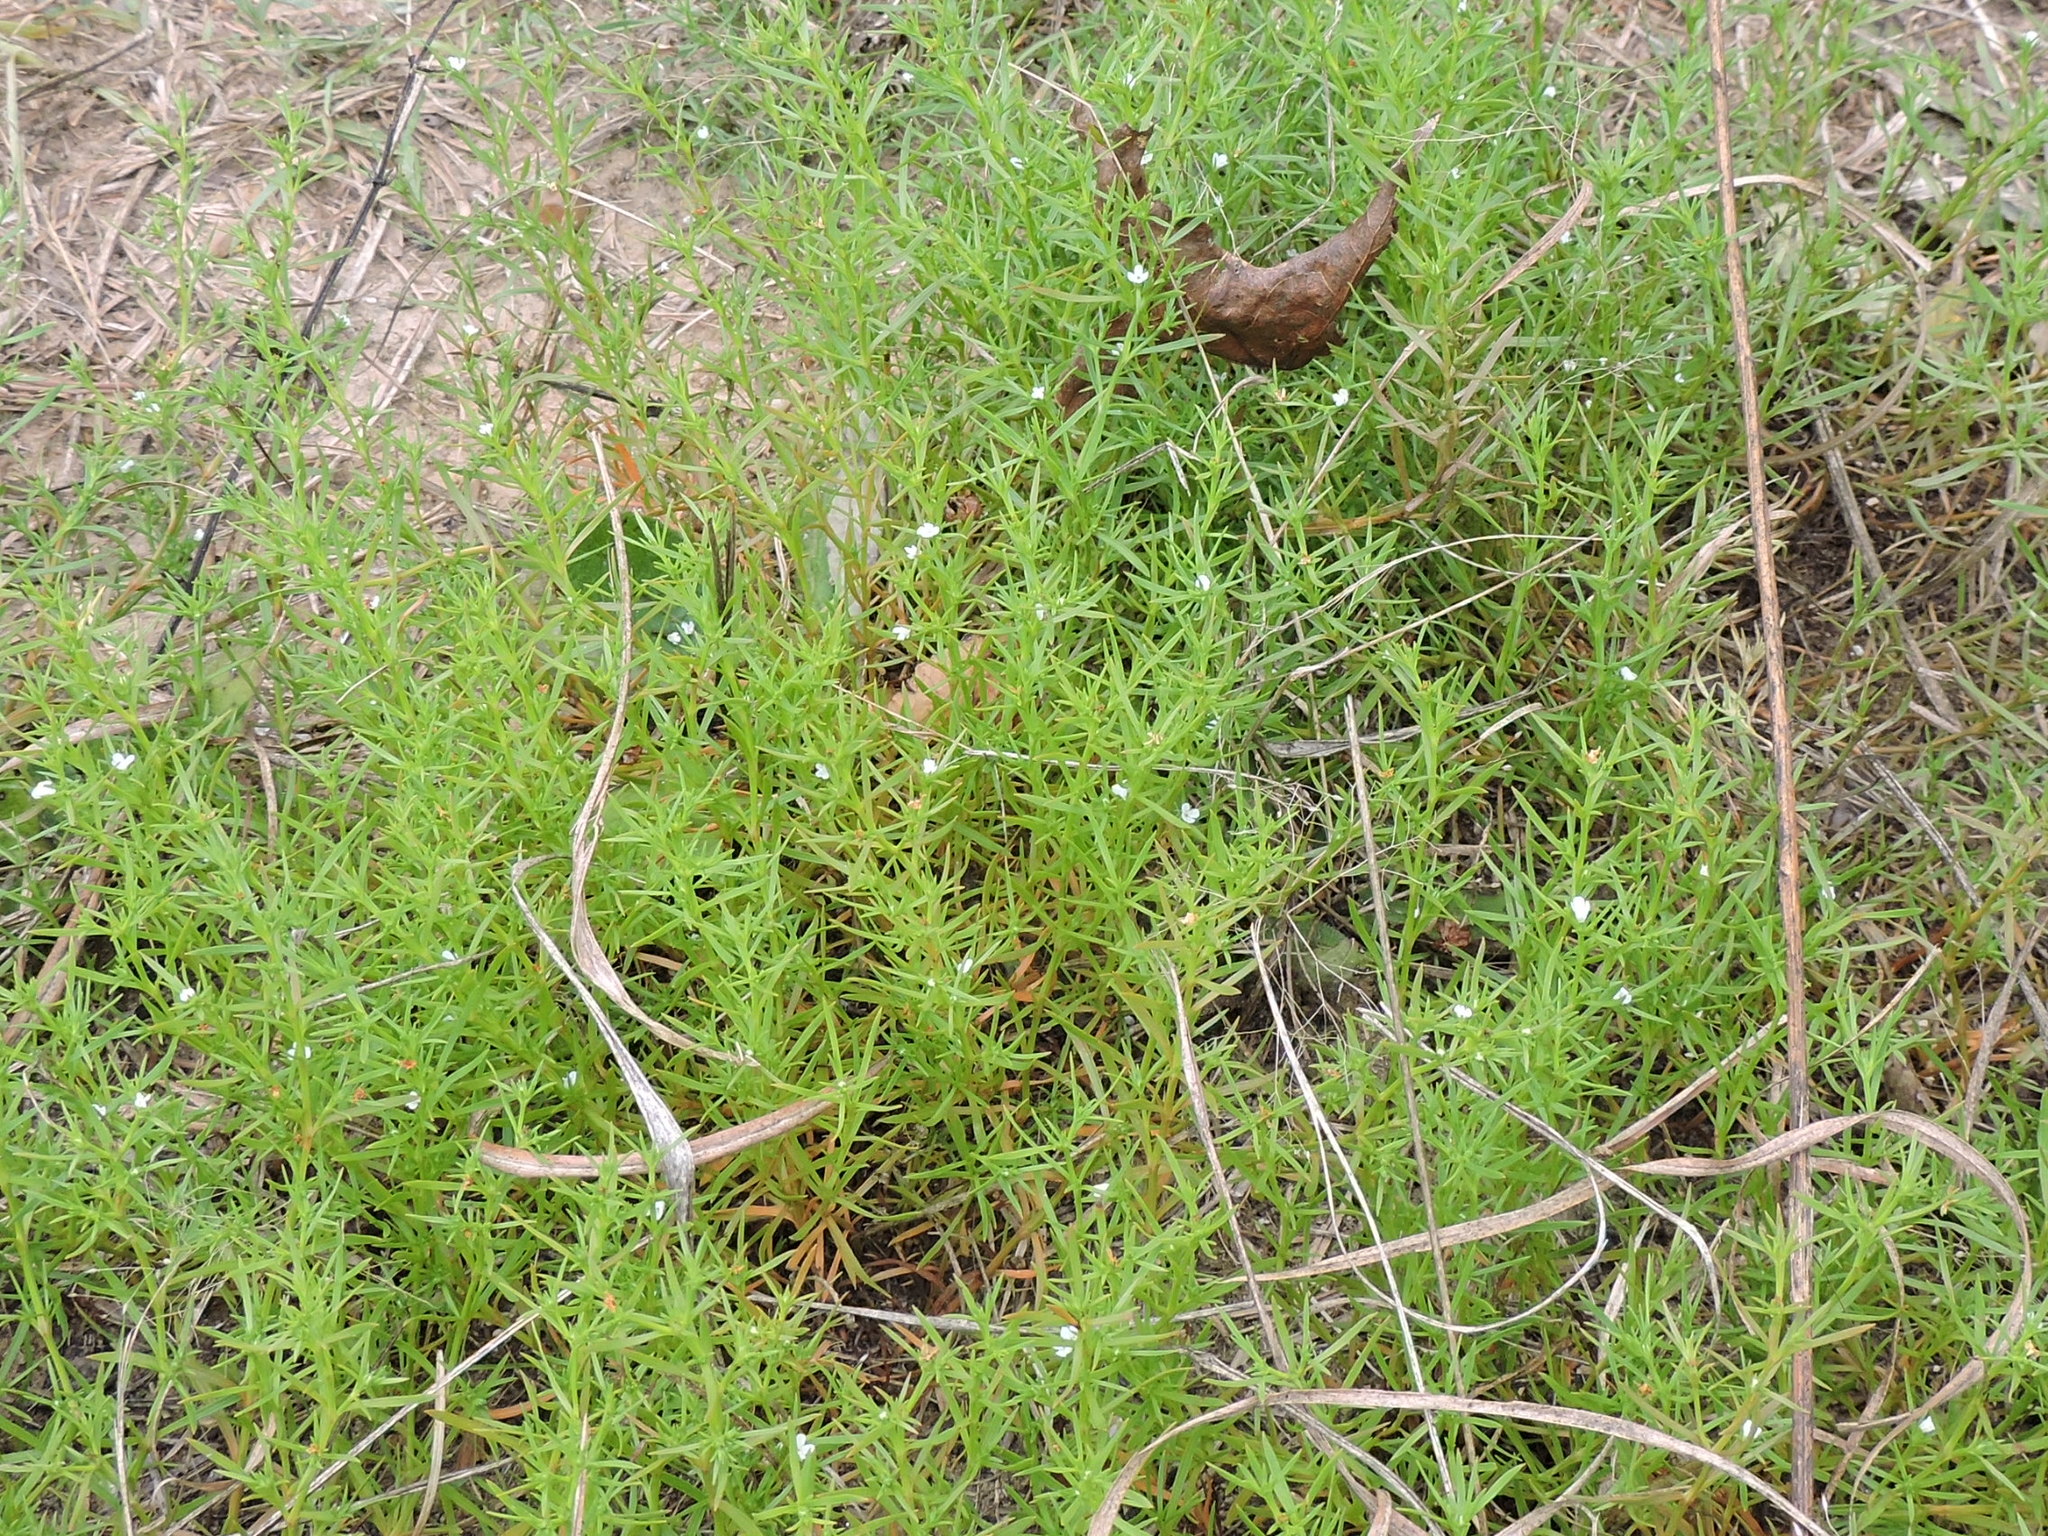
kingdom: Plantae
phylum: Tracheophyta
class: Magnoliopsida
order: Lamiales
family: Tetrachondraceae
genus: Polypremum
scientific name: Polypremum procumbens
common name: Juniper-leaf
